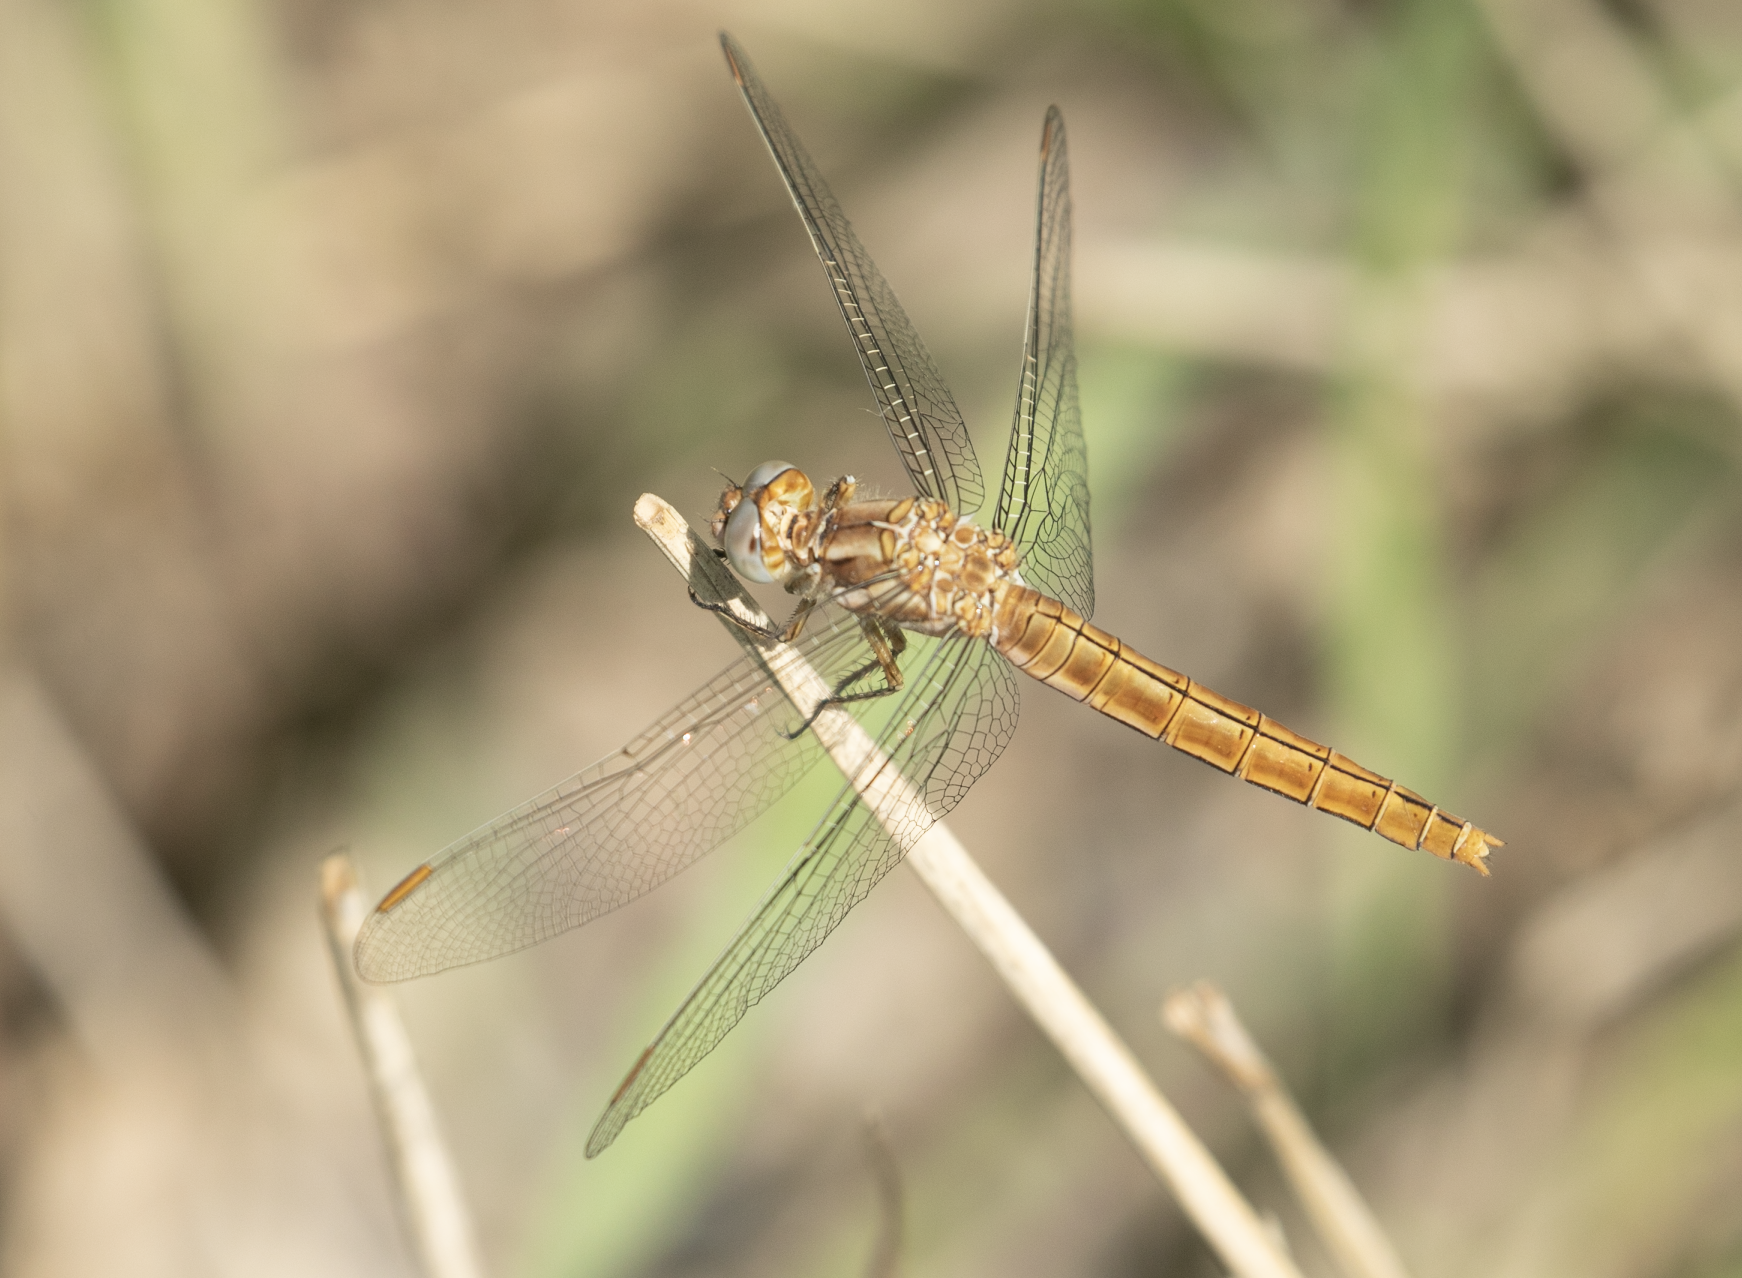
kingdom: Animalia
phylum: Arthropoda
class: Insecta
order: Odonata
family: Libellulidae
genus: Orthetrum
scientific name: Orthetrum brunneum
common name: Southern skimmer
